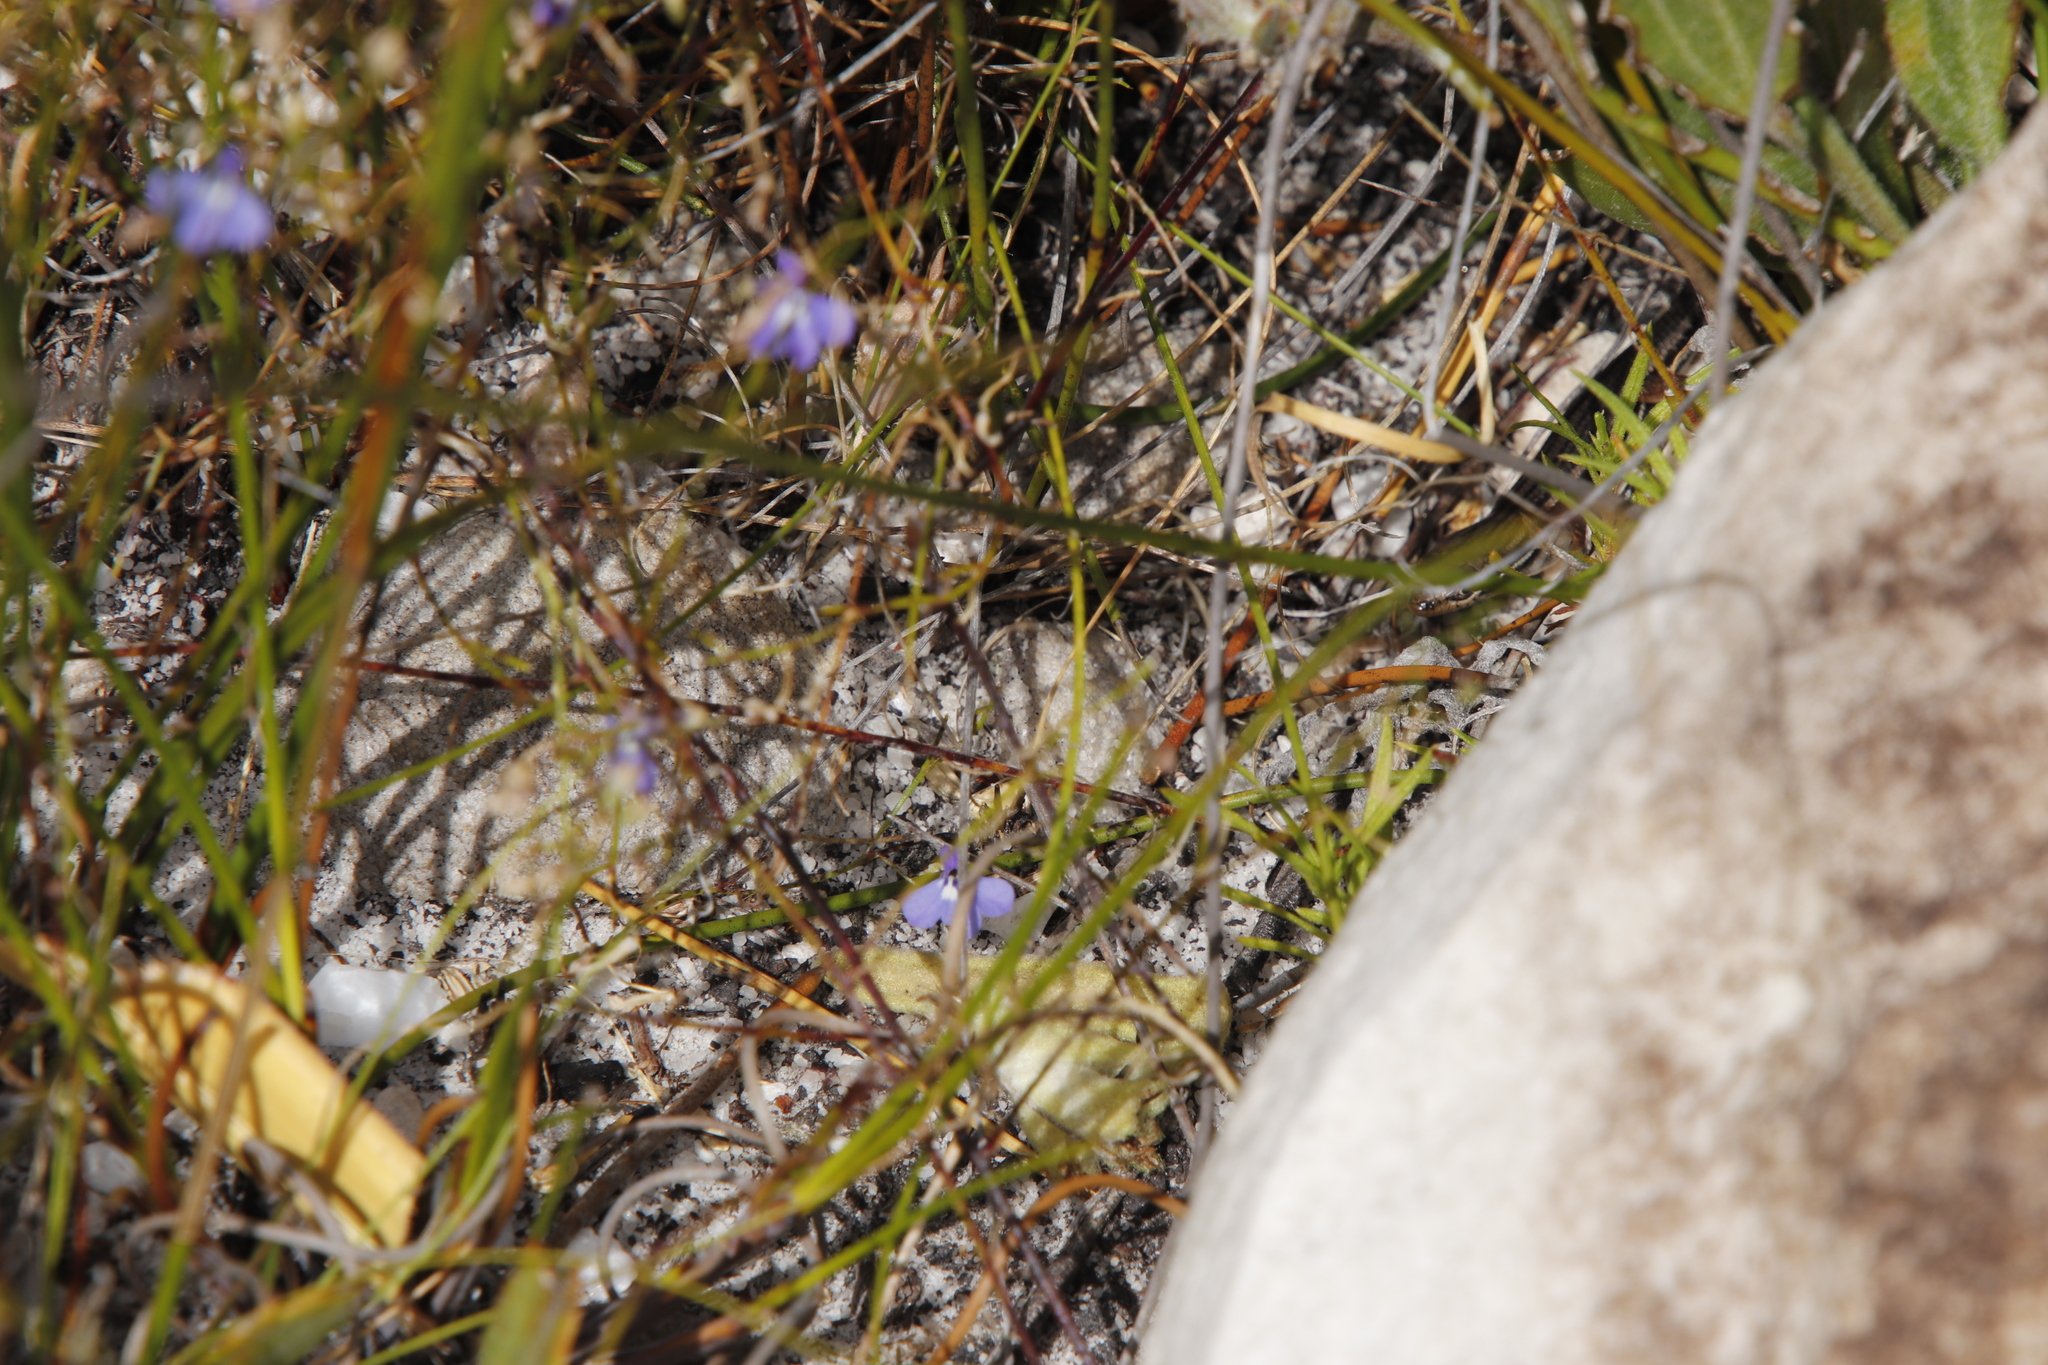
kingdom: Plantae
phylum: Tracheophyta
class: Magnoliopsida
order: Asterales
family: Campanulaceae
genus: Lobelia
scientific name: Lobelia setacea
